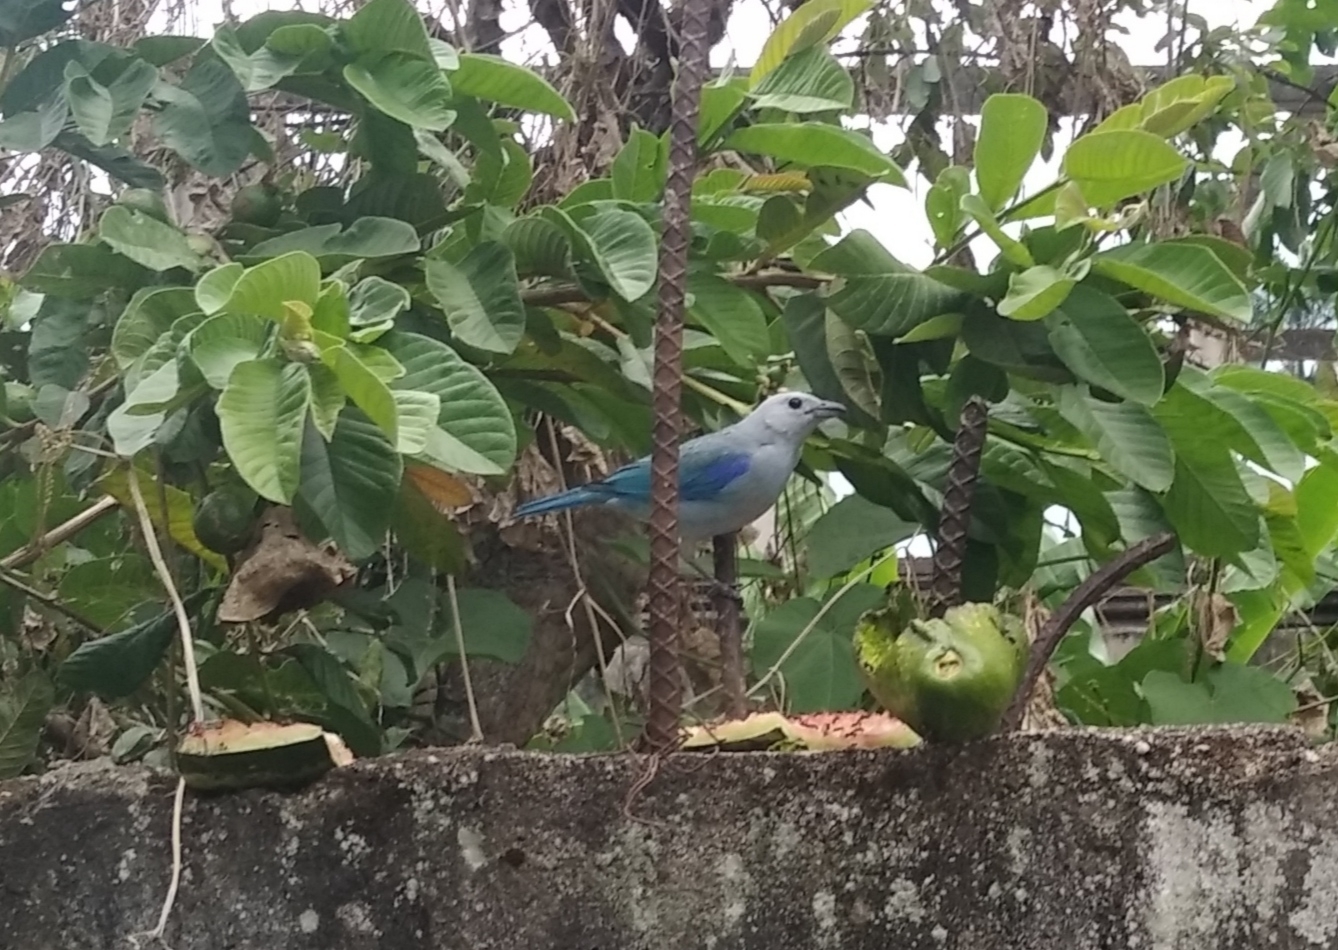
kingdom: Animalia
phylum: Chordata
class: Aves
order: Passeriformes
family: Thraupidae
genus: Thraupis
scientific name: Thraupis episcopus
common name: Blue-grey tanager
